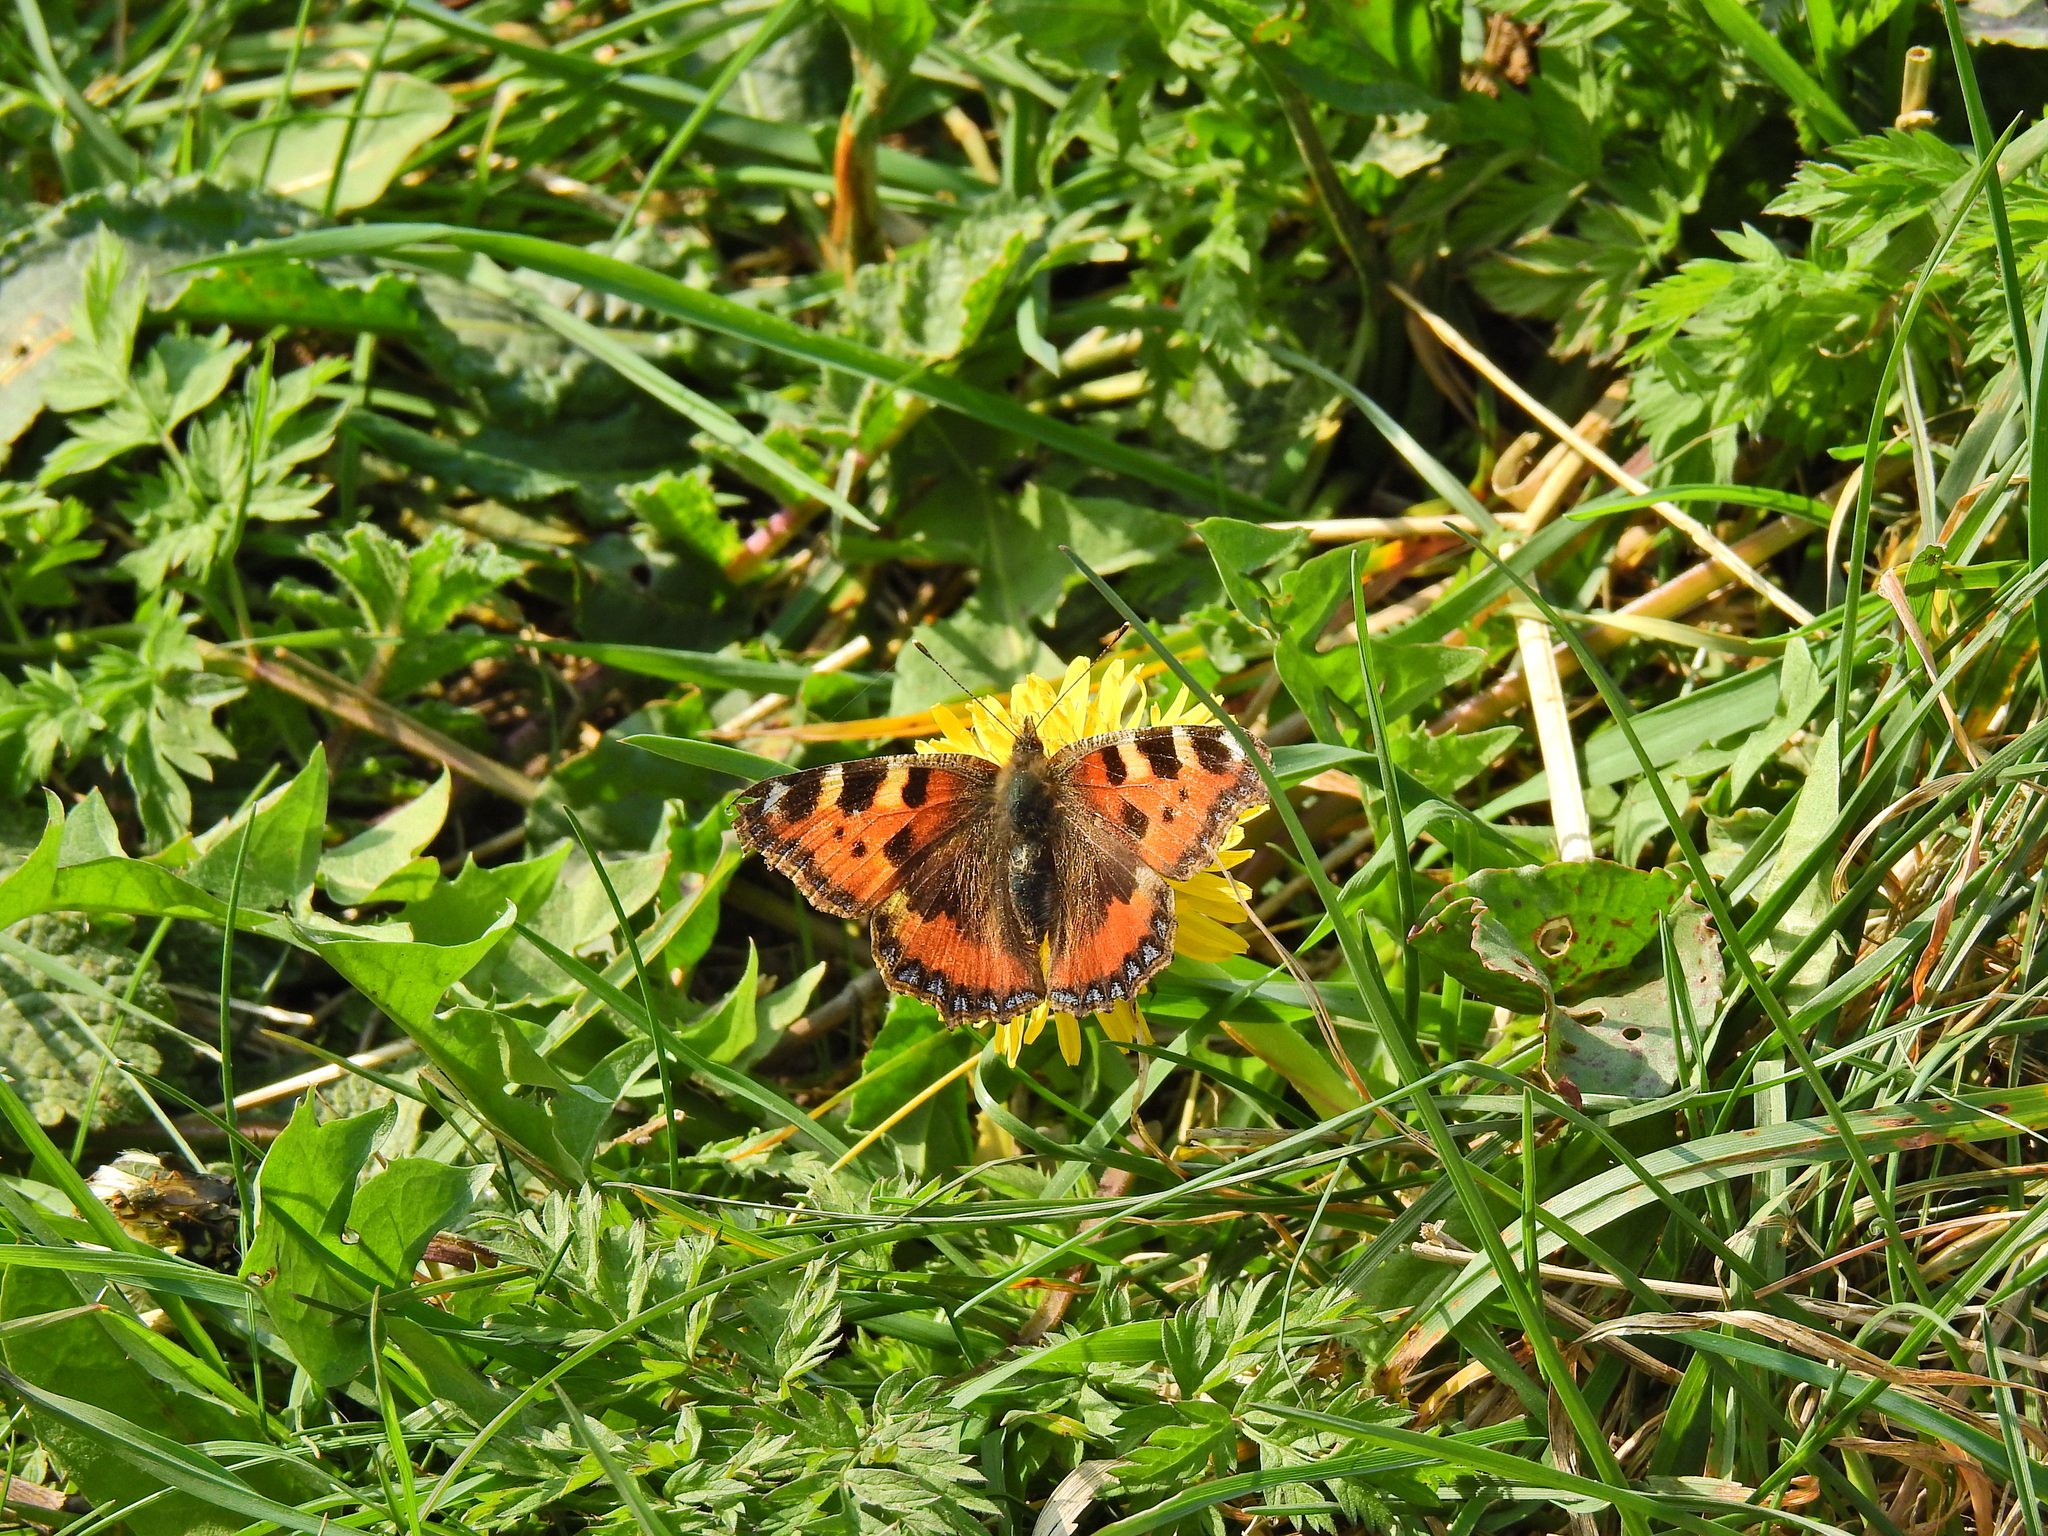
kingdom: Animalia
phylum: Arthropoda
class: Insecta
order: Lepidoptera
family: Nymphalidae
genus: Aglais
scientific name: Aglais urticae
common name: Small tortoiseshell
